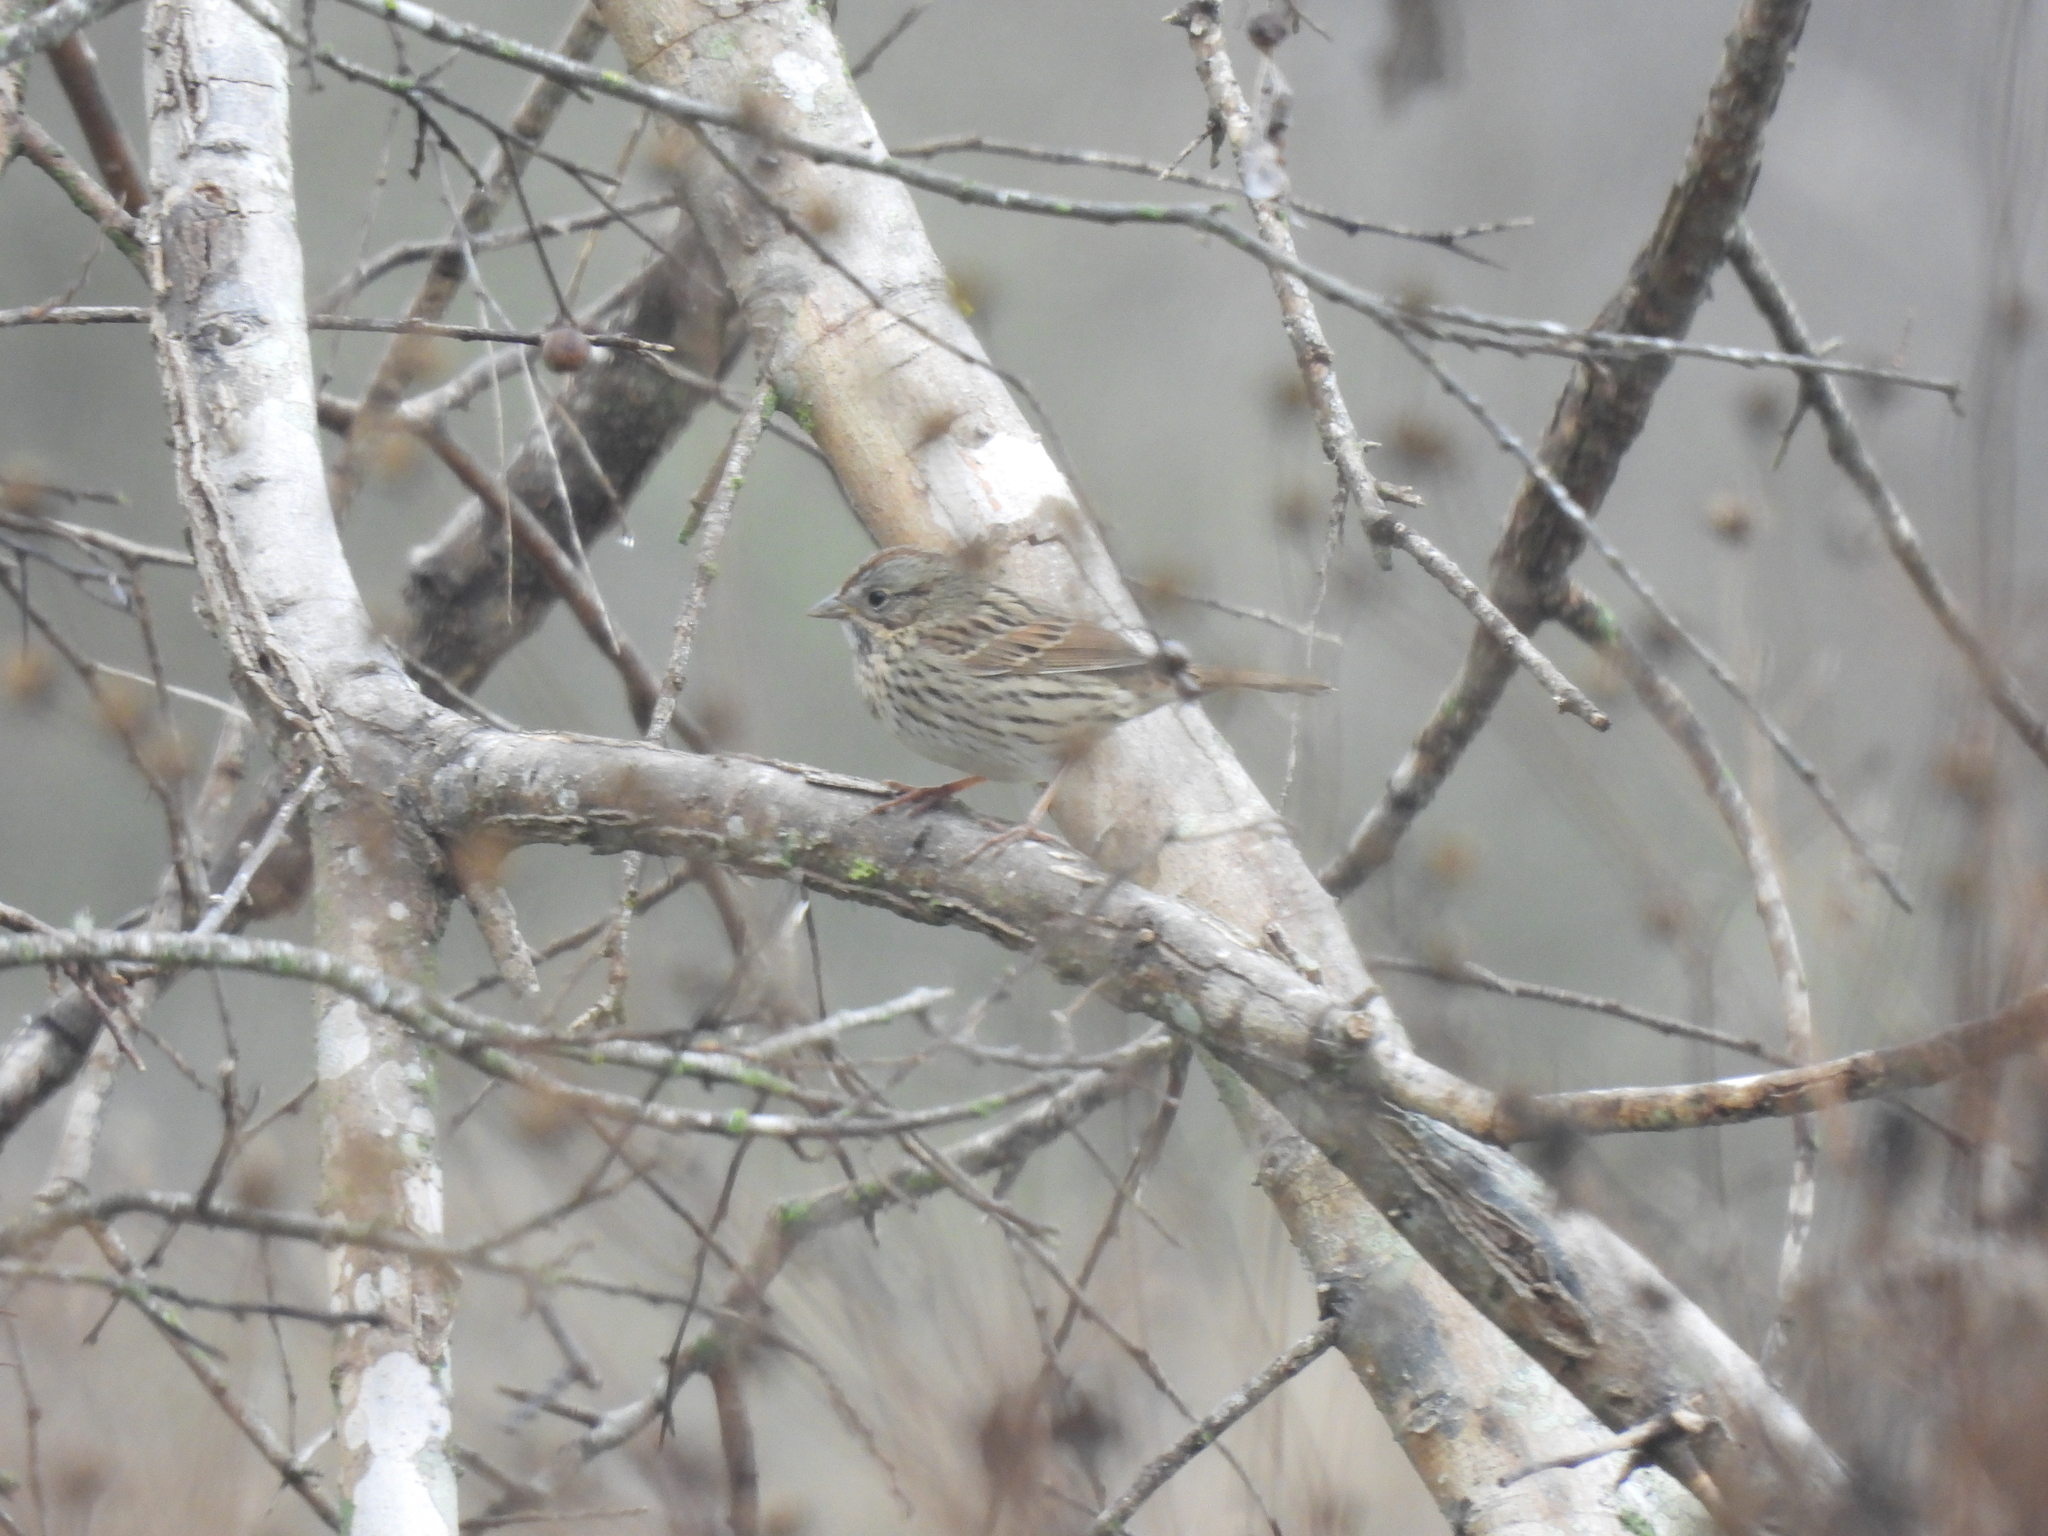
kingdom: Animalia
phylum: Chordata
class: Aves
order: Passeriformes
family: Passerellidae
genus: Melospiza
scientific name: Melospiza lincolnii
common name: Lincoln's sparrow
